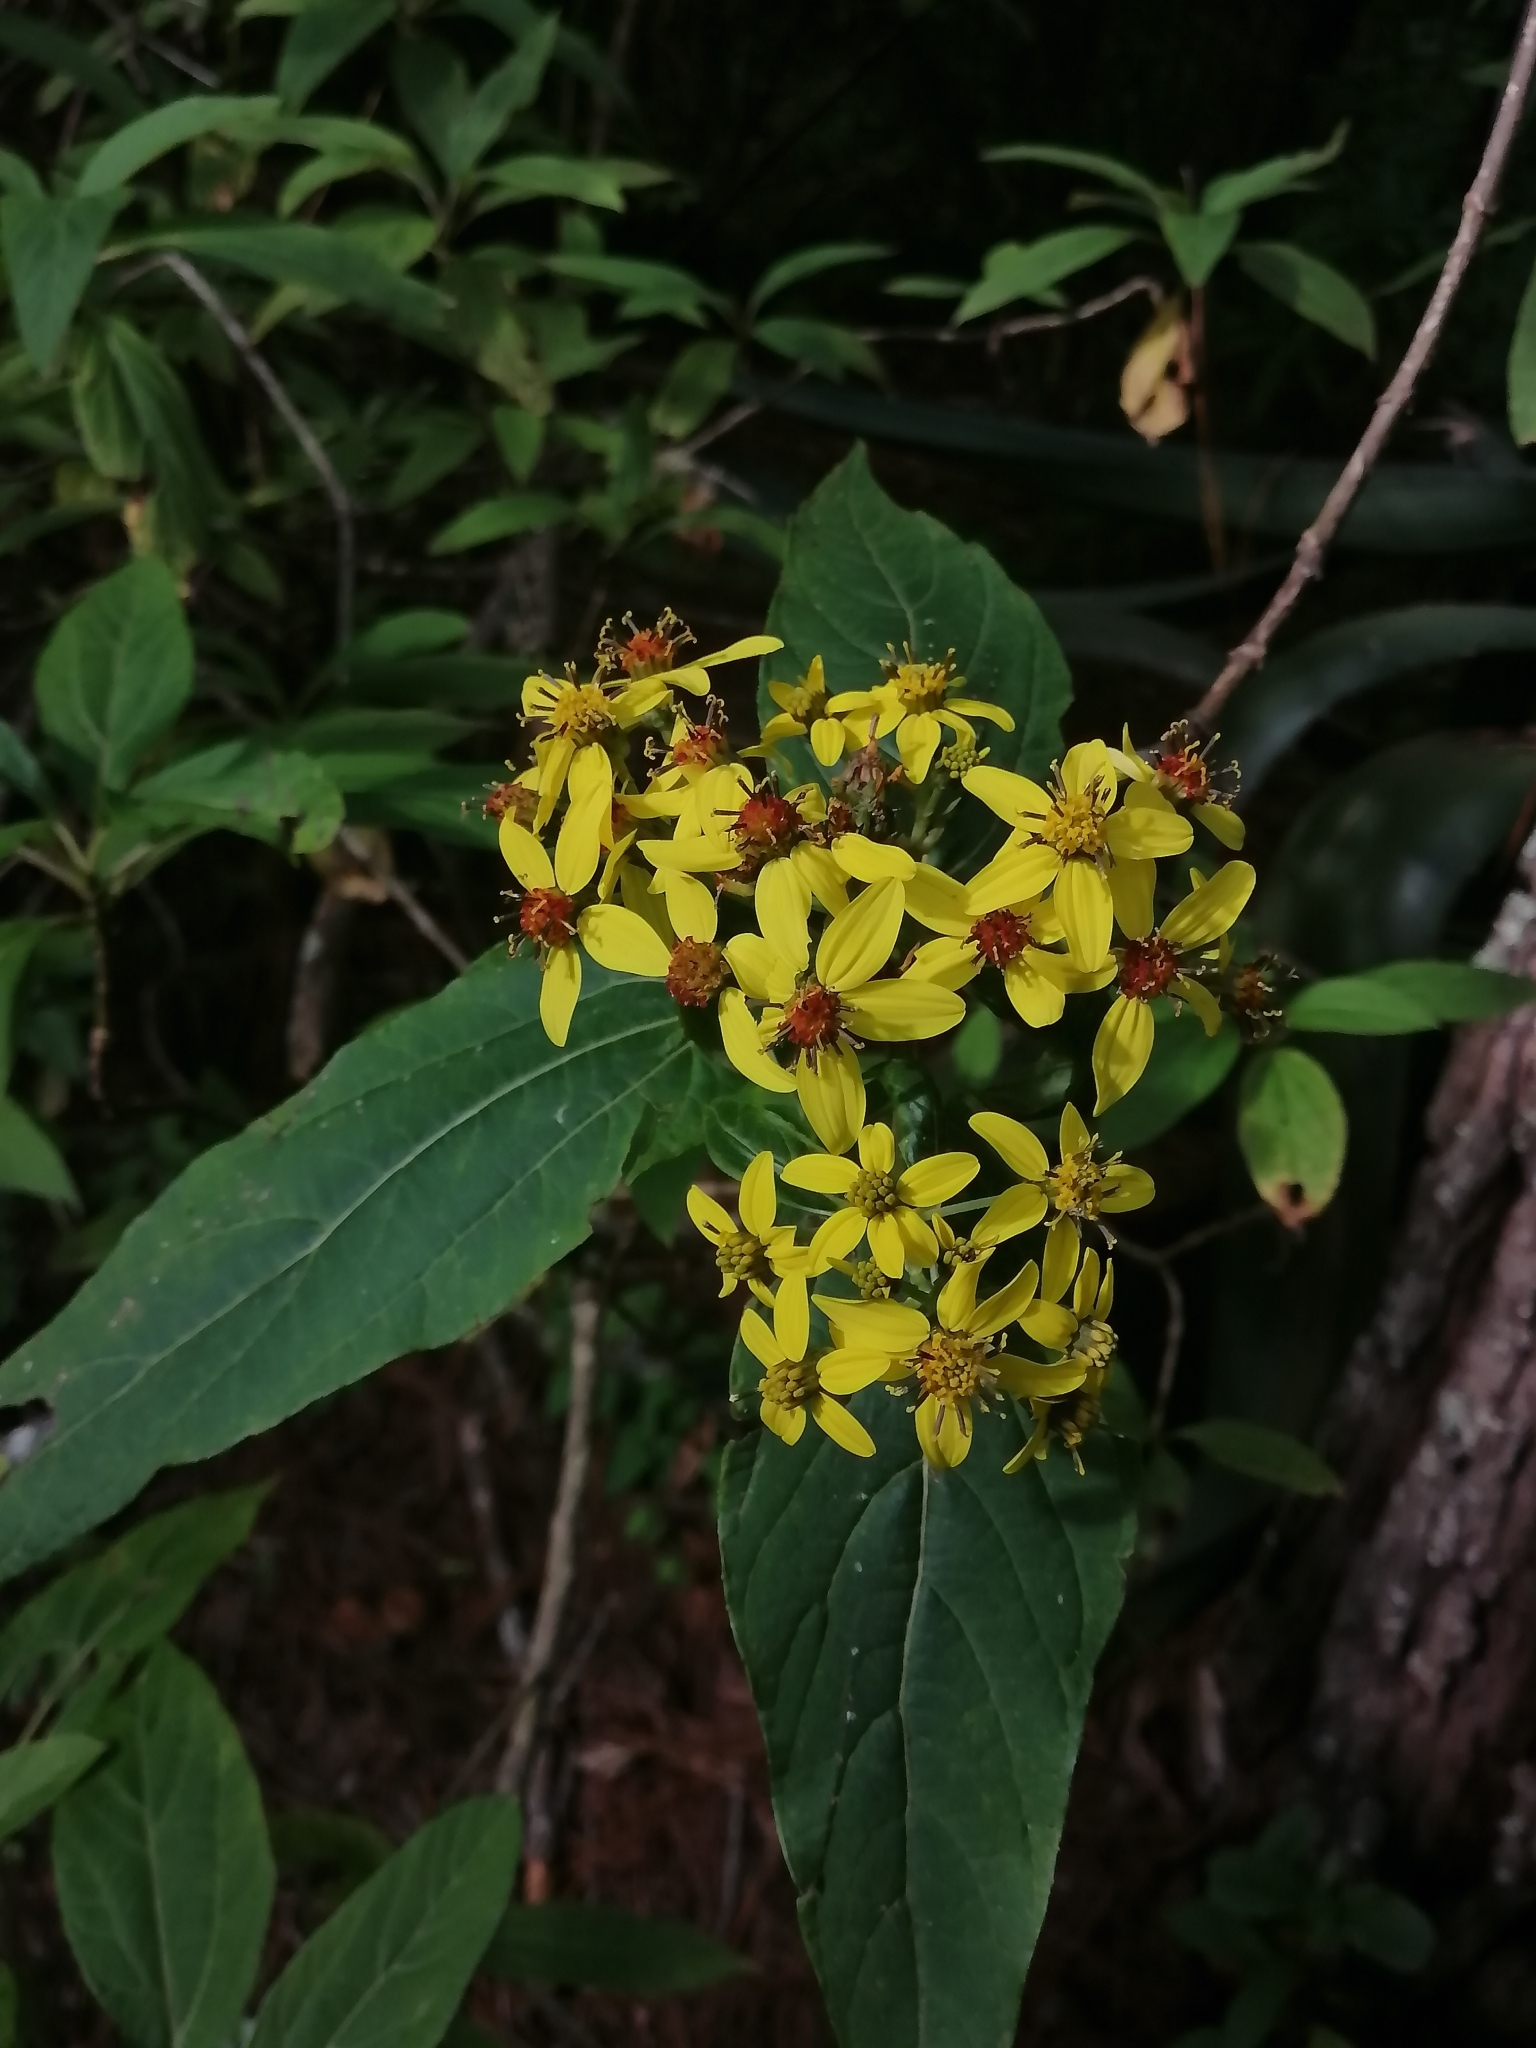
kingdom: Plantae
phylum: Tracheophyta
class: Magnoliopsida
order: Asterales
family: Asteraceae
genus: Dendroviguiera
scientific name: Dendroviguiera neocronquistii
